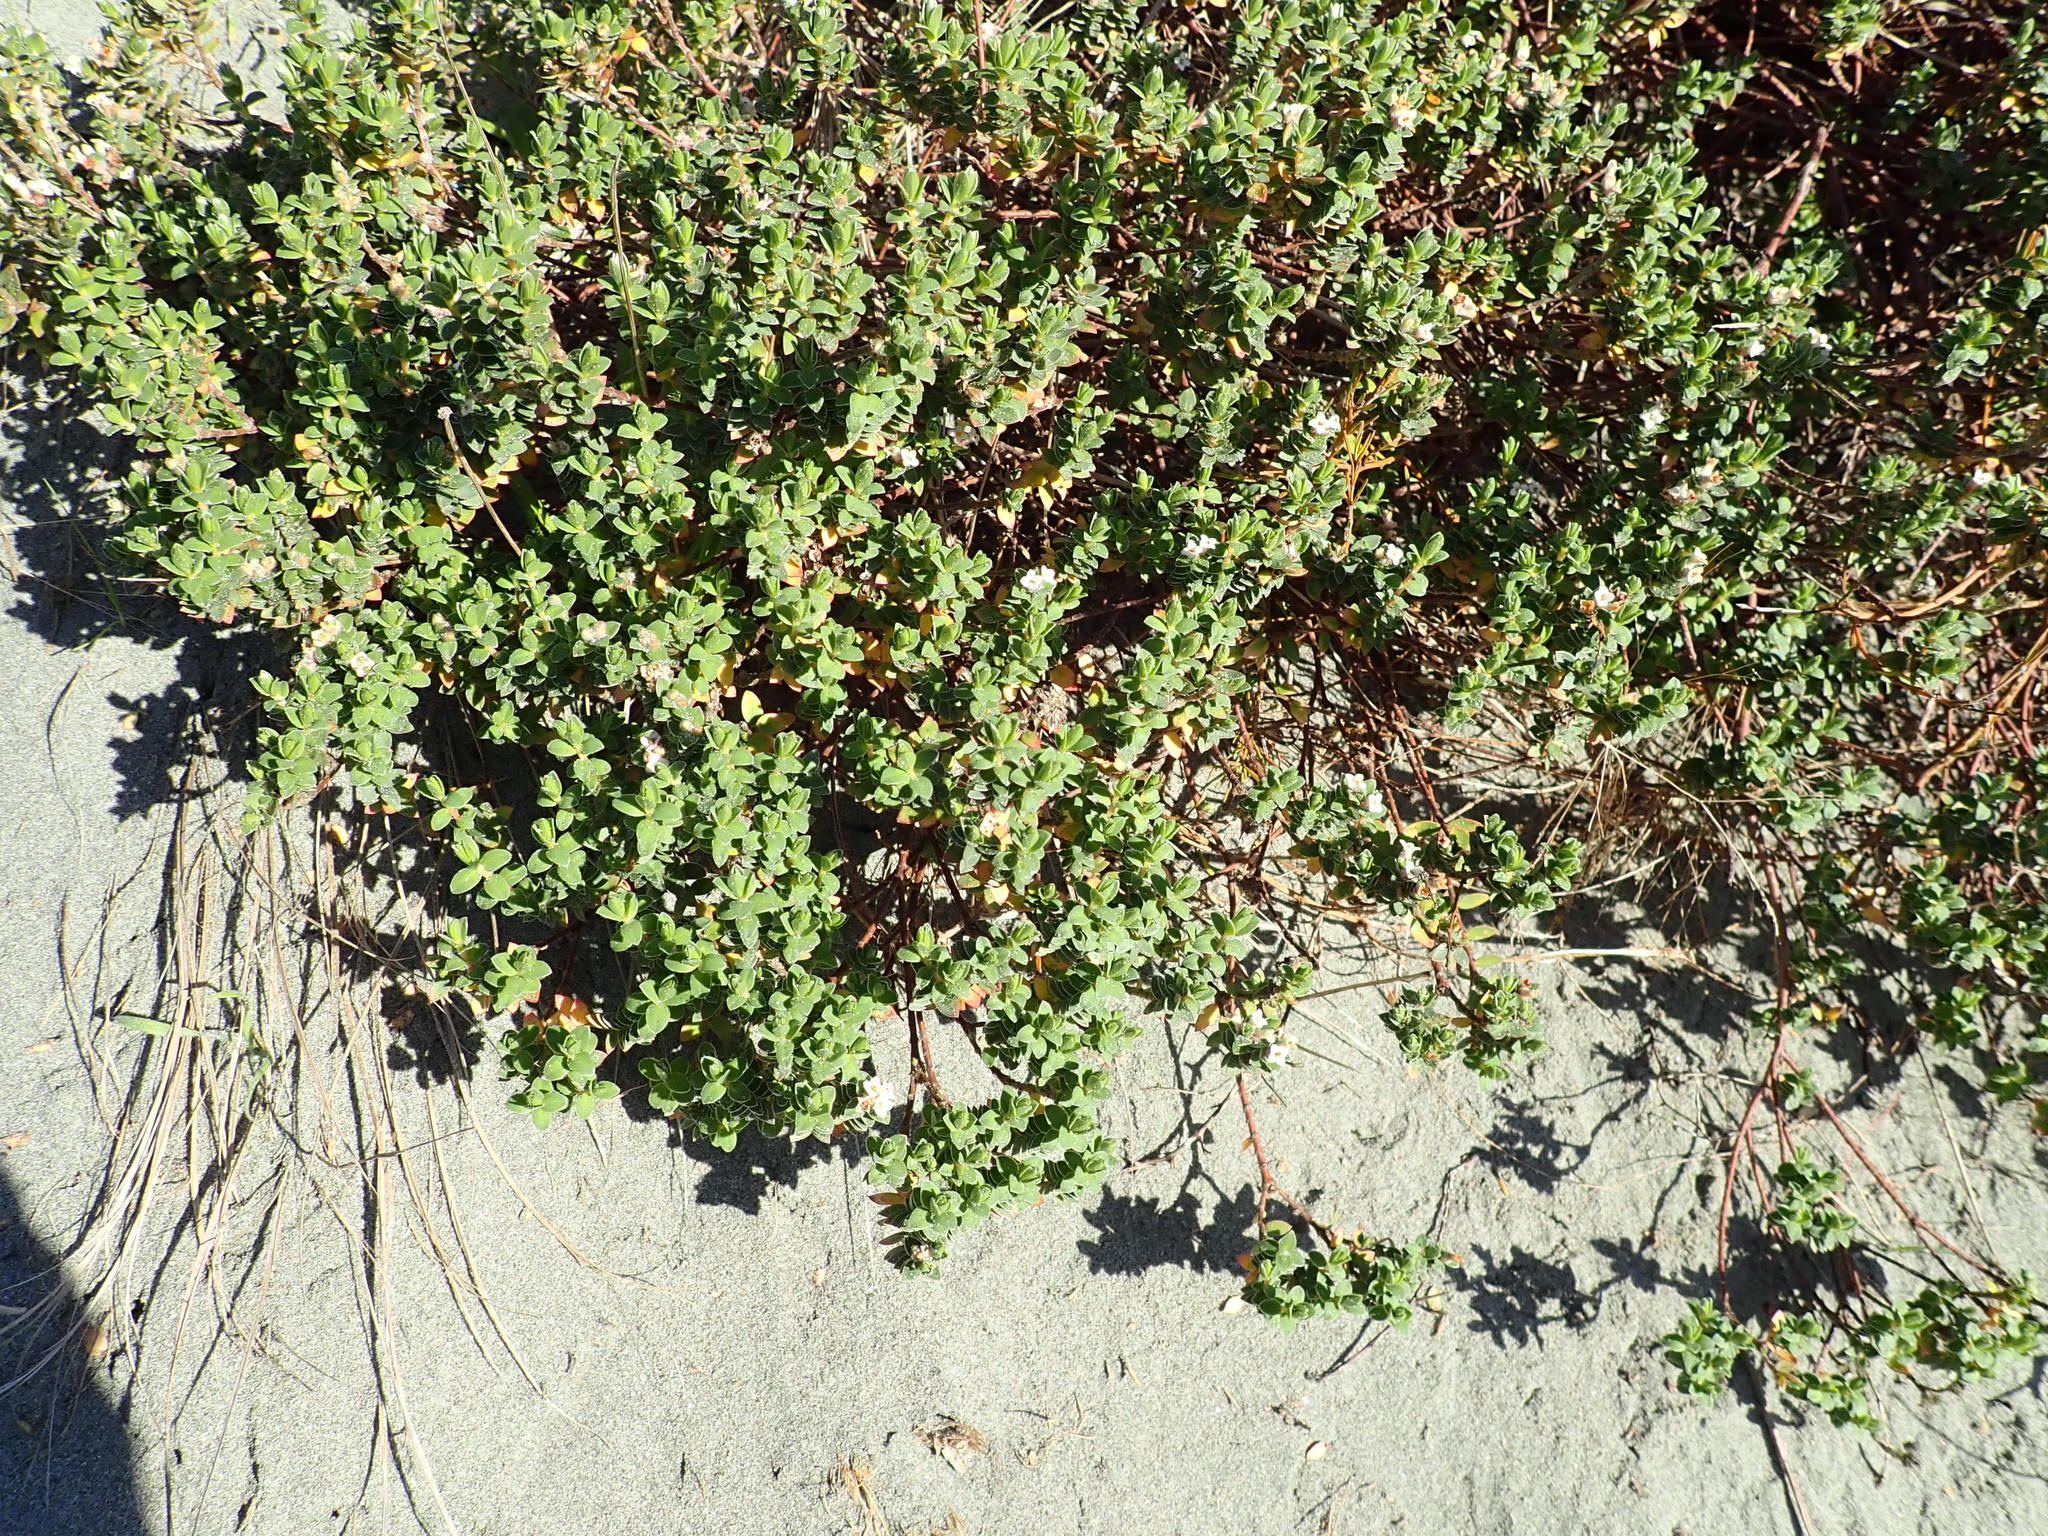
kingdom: Plantae
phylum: Tracheophyta
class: Magnoliopsida
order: Malvales
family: Thymelaeaceae
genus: Pimelea
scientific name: Pimelea villosa
